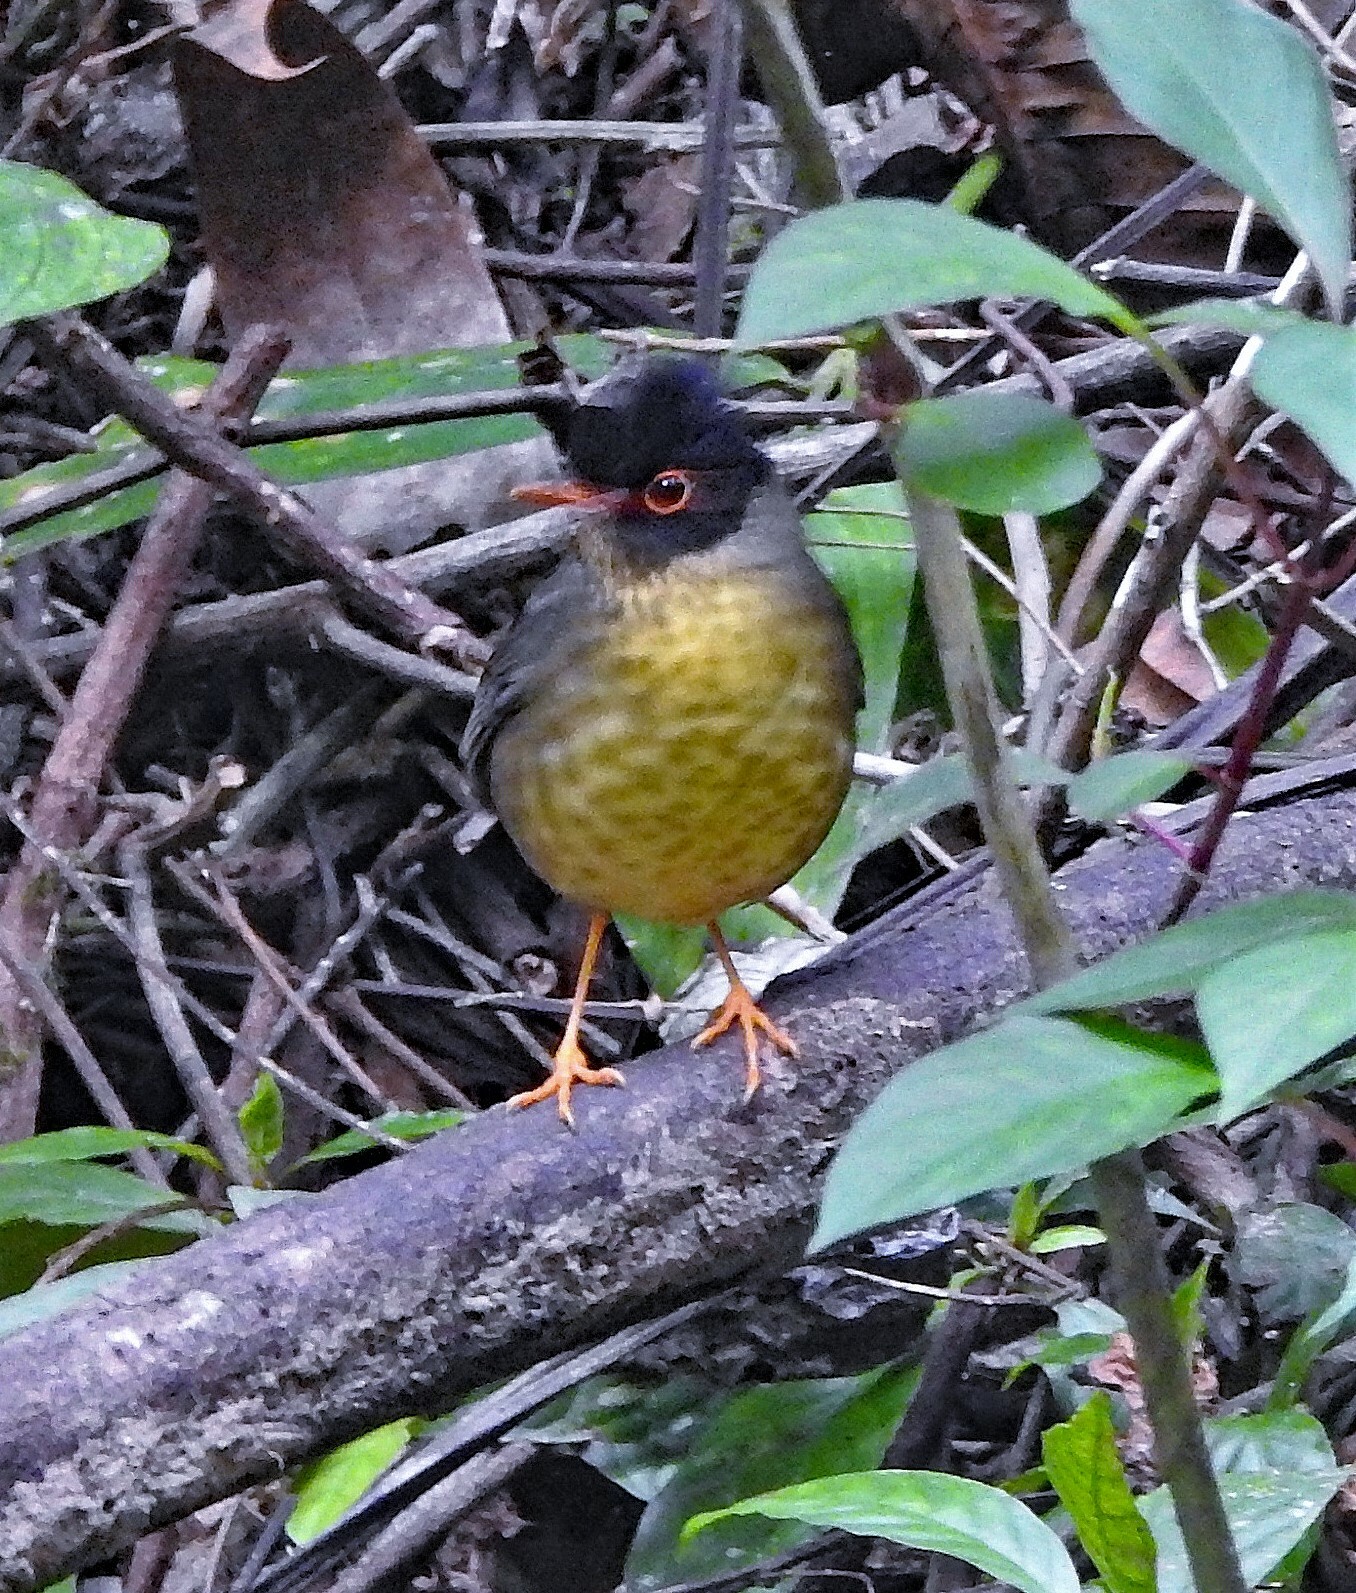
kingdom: Animalia
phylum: Chordata
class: Aves
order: Passeriformes
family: Turdidae
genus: Catharus
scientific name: Catharus dryas
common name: Spotted nightingale-thrush
